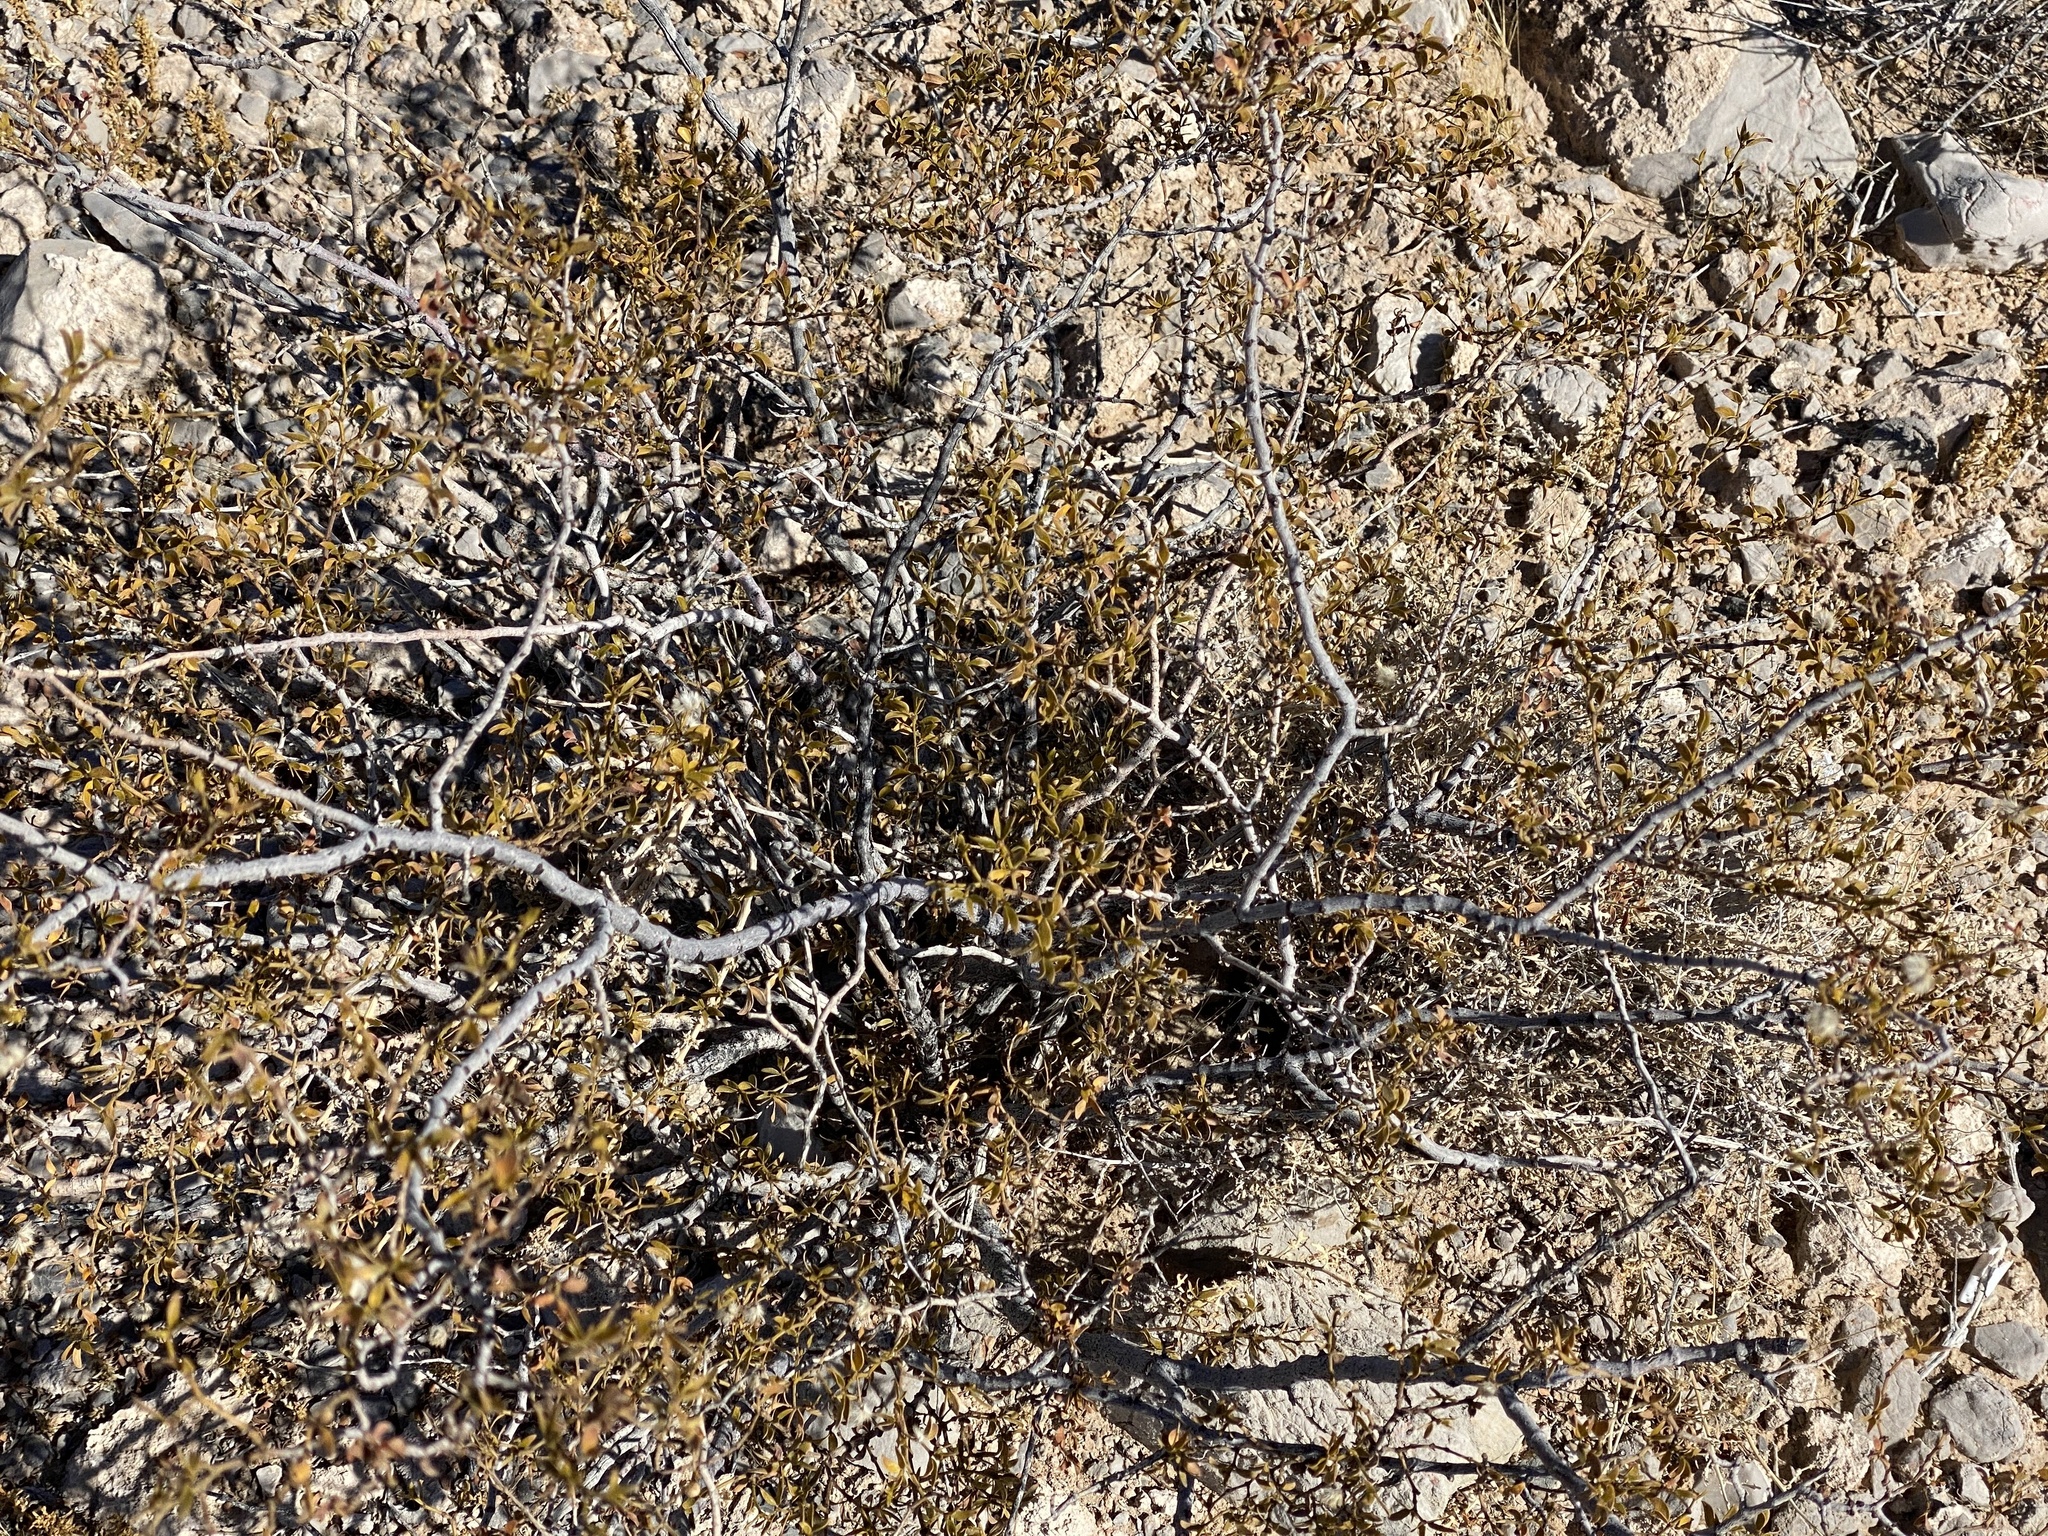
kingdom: Plantae
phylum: Tracheophyta
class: Magnoliopsida
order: Zygophyllales
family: Zygophyllaceae
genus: Larrea
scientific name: Larrea tridentata
